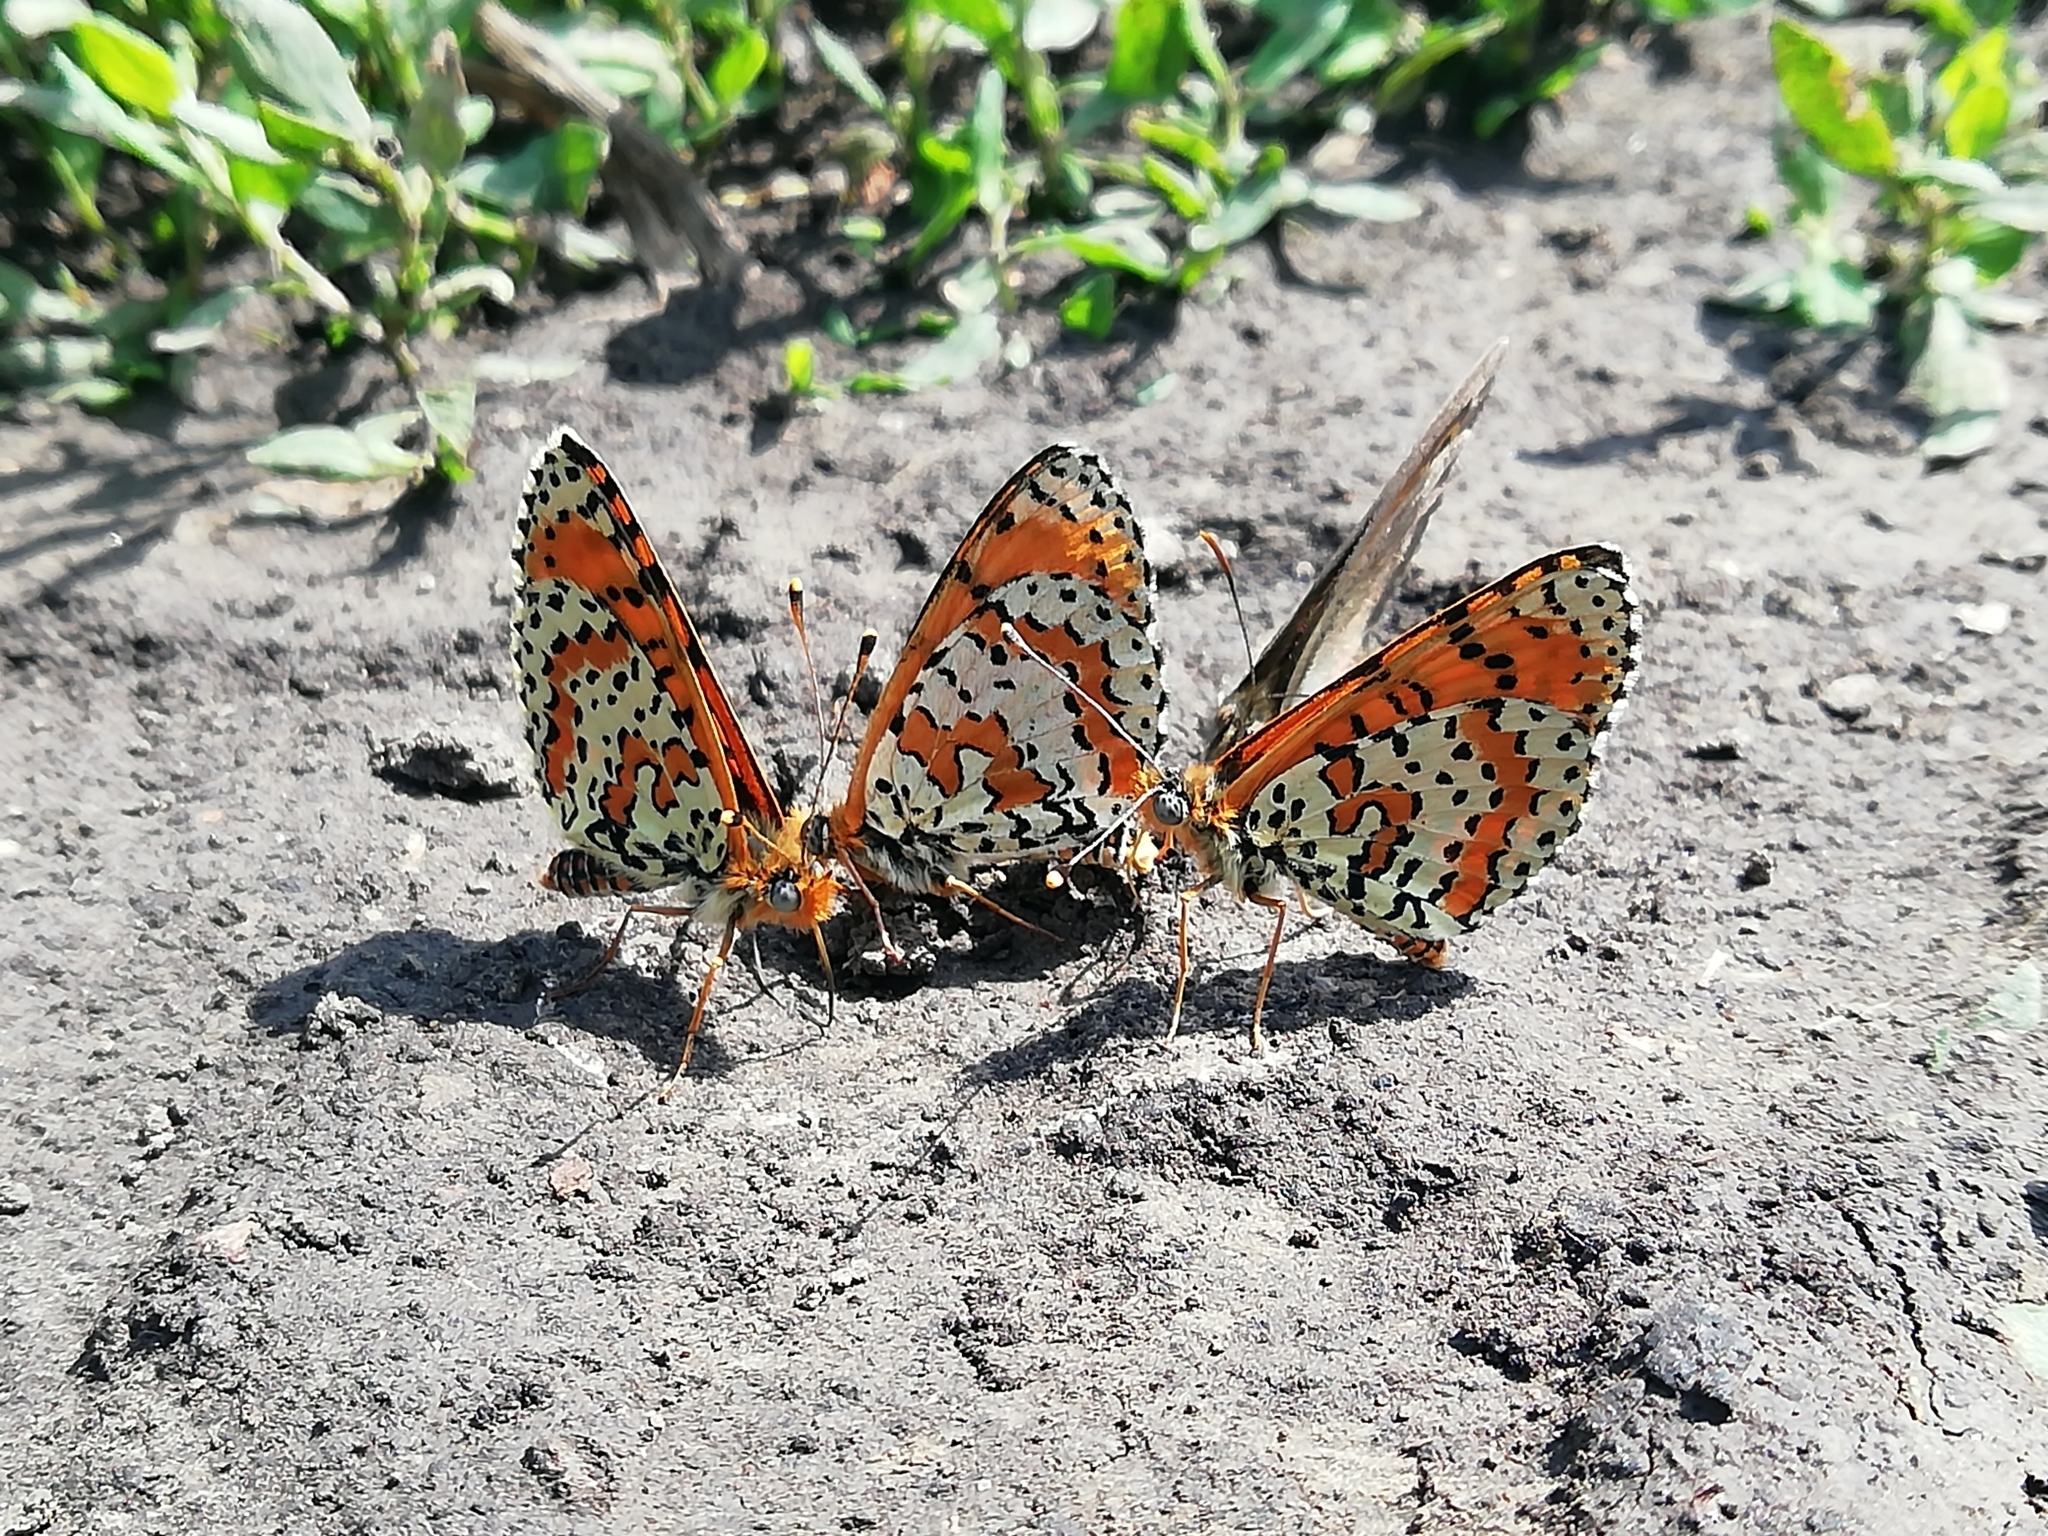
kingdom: Animalia
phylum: Arthropoda
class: Insecta
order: Lepidoptera
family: Nymphalidae
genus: Melitaea
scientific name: Melitaea didyma
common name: Spotted fritillary
